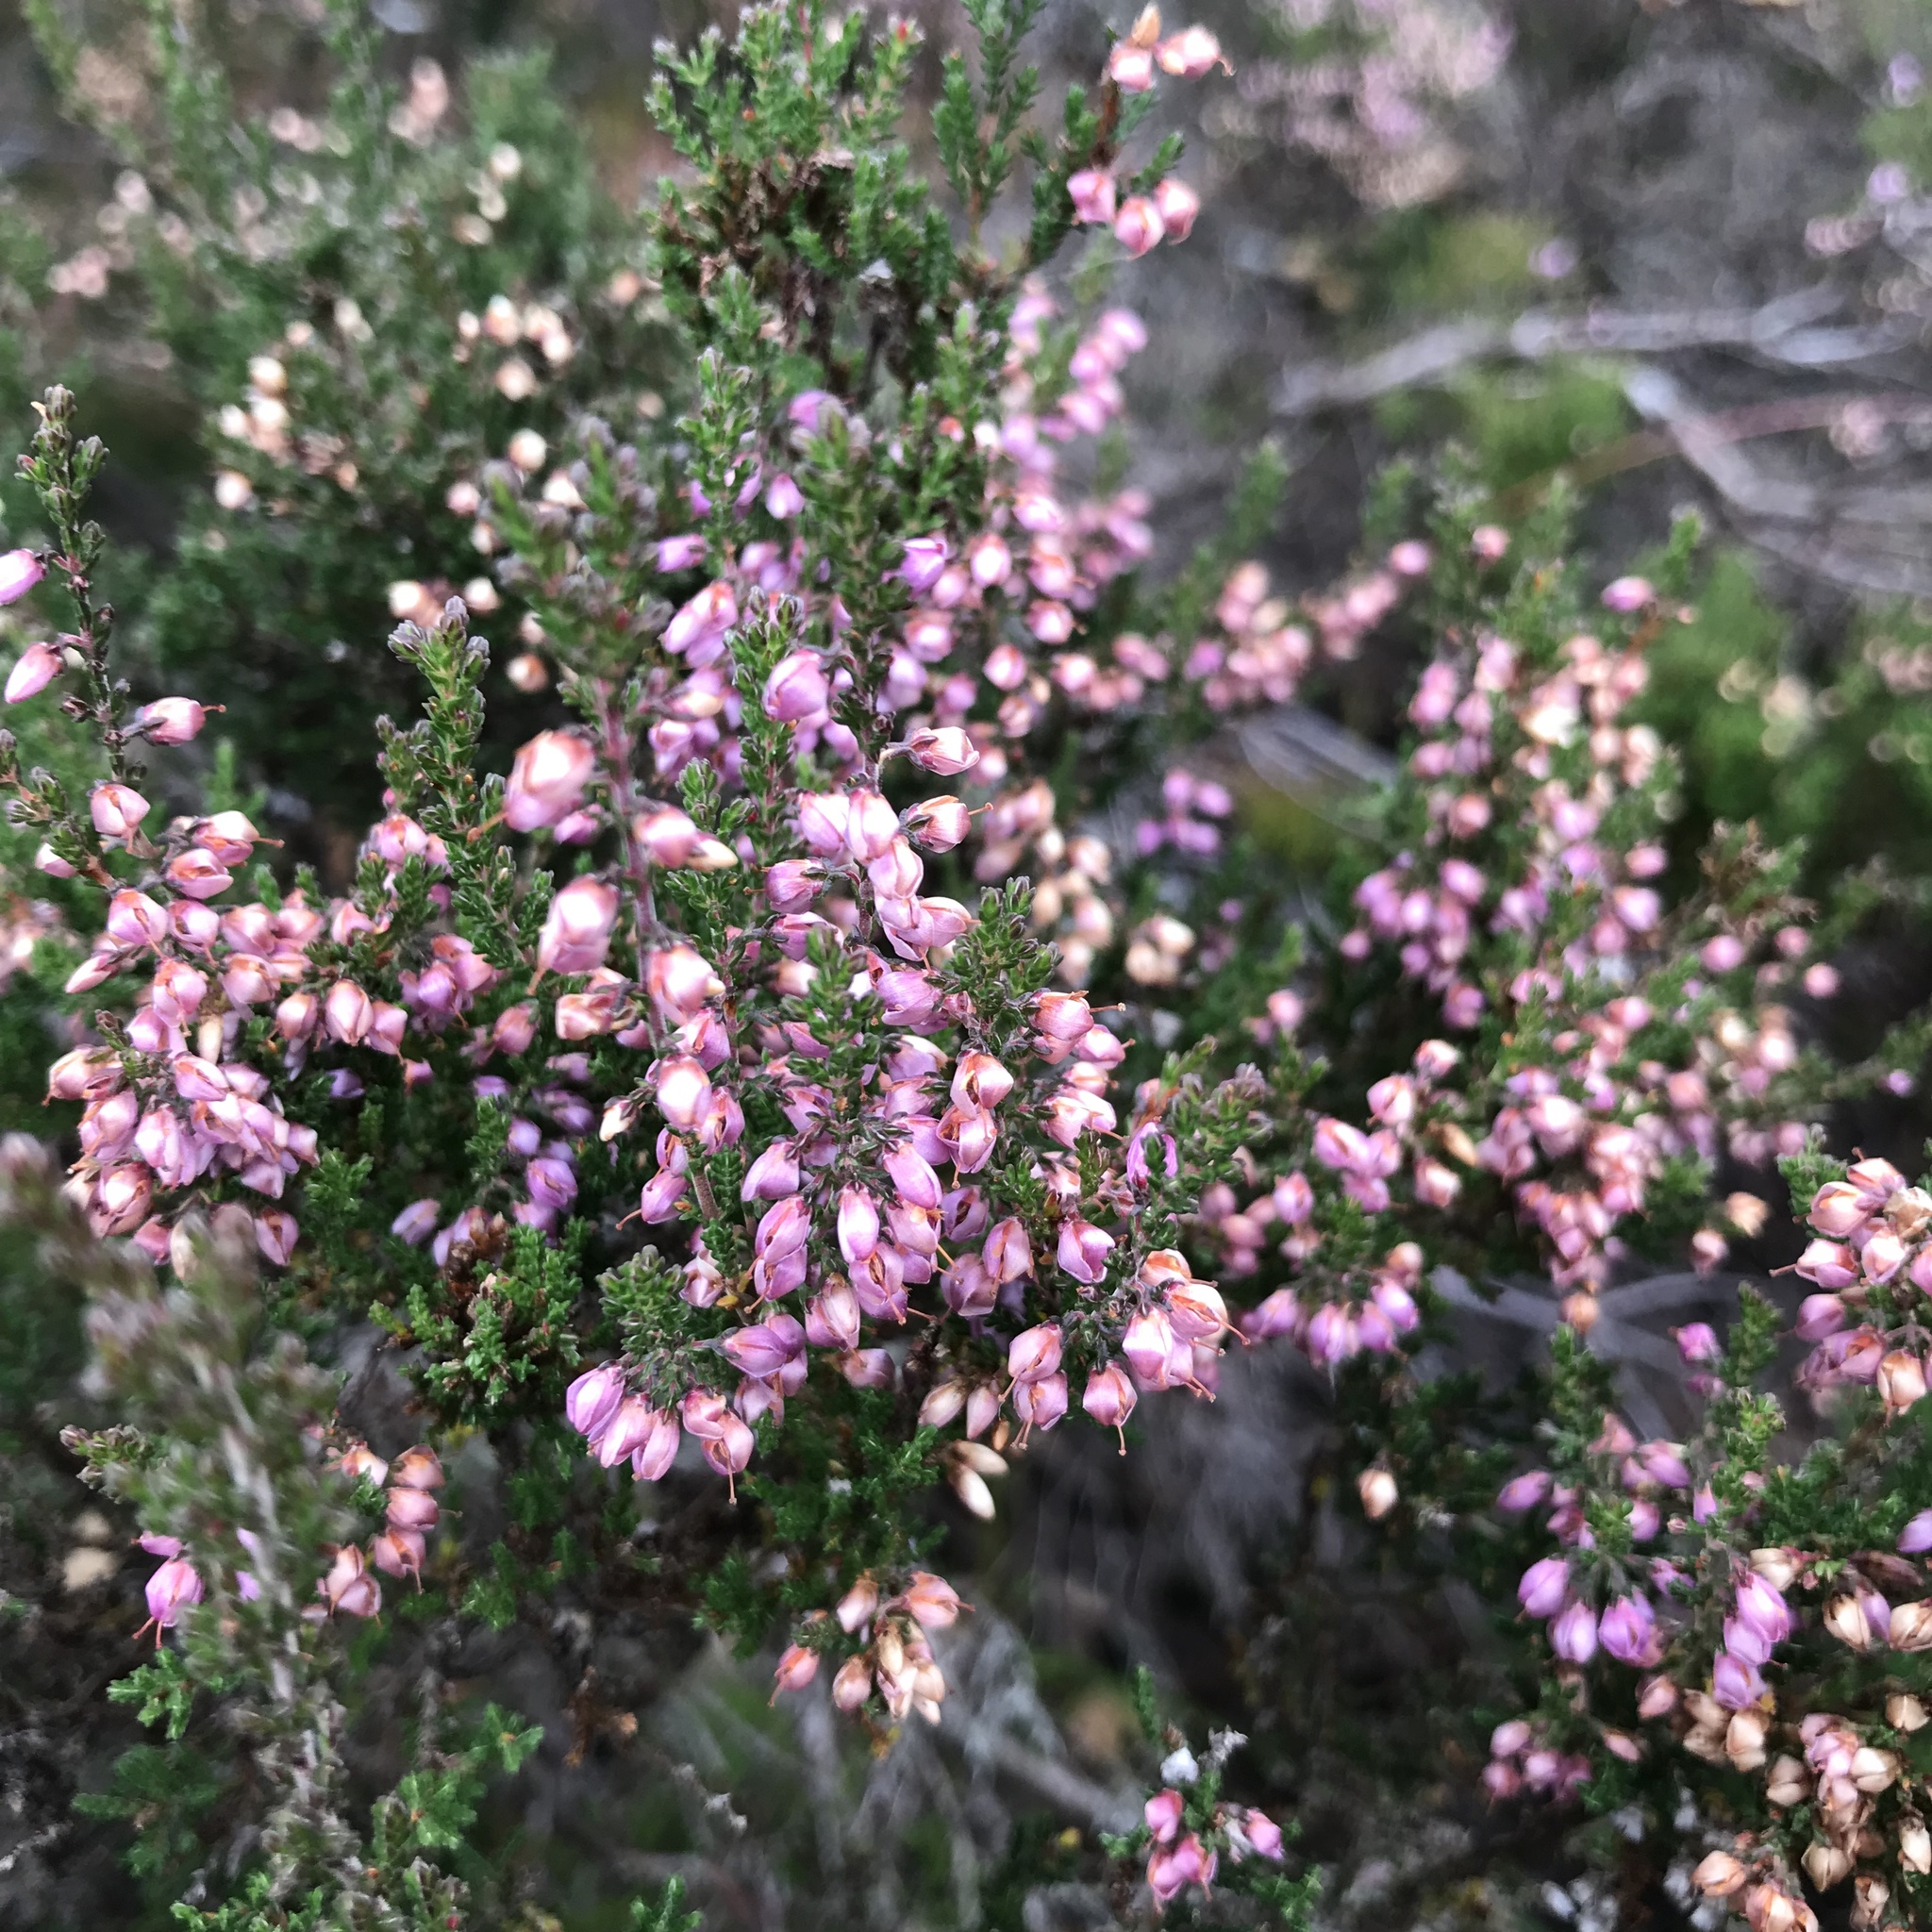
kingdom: Plantae
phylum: Tracheophyta
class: Magnoliopsida
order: Ericales
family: Ericaceae
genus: Calluna
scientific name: Calluna vulgaris
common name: Heather
